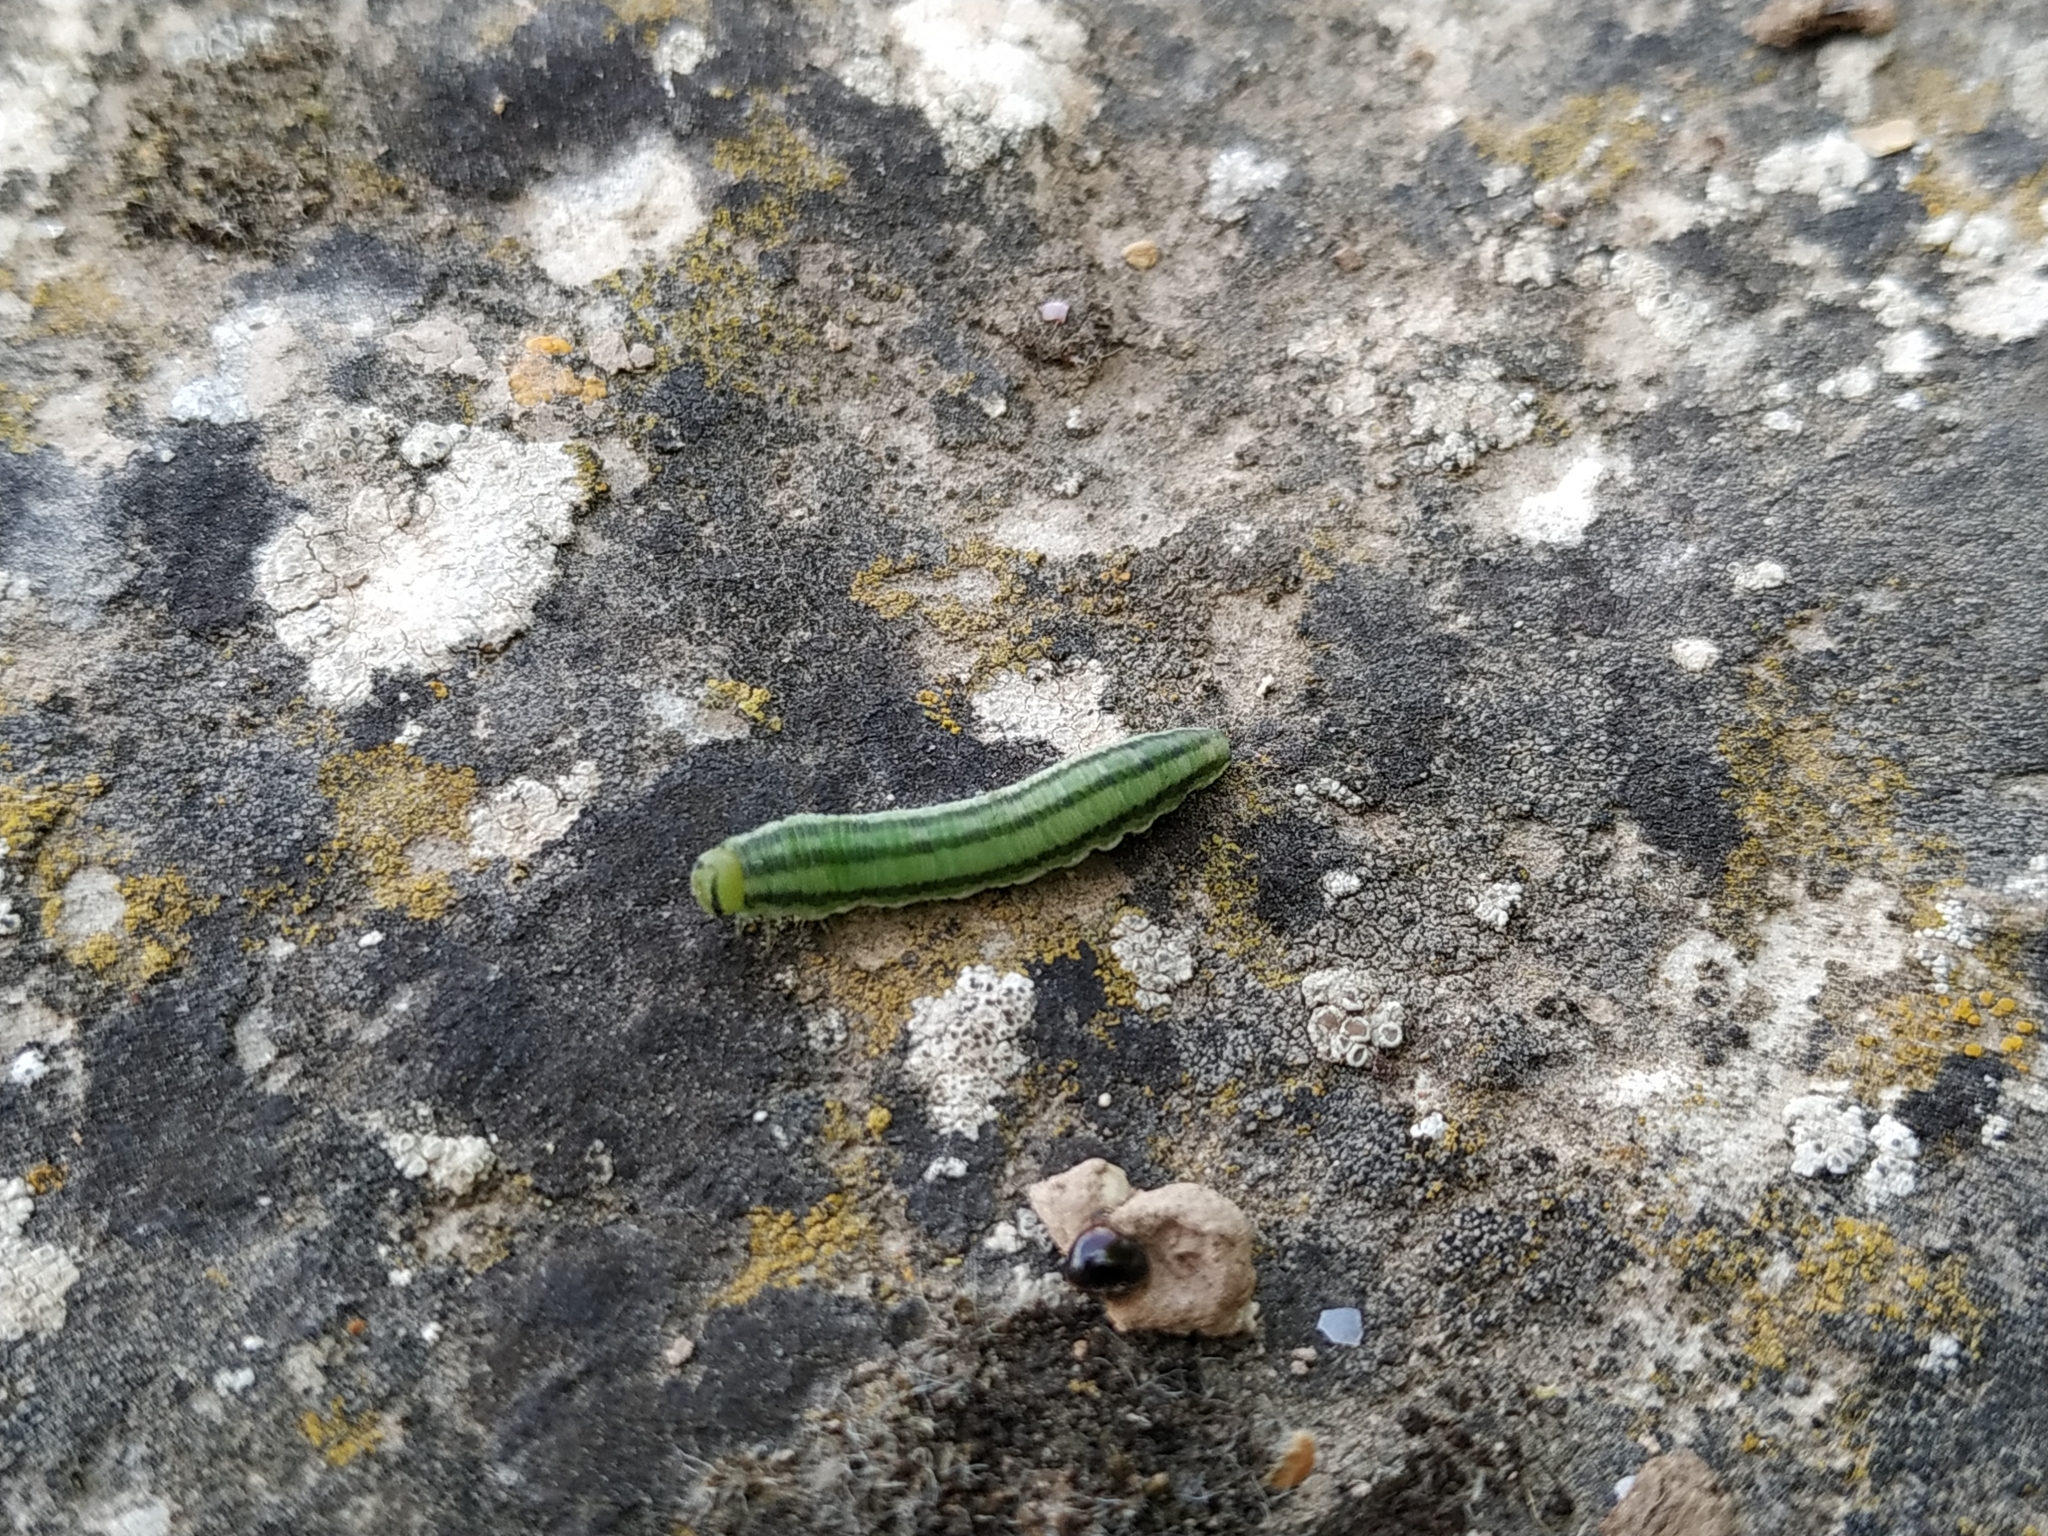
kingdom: Animalia
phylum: Arthropoda
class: Insecta
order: Hymenoptera
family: Diprionidae
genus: Gilpinia
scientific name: Gilpinia virens
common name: European spruce sawfly
